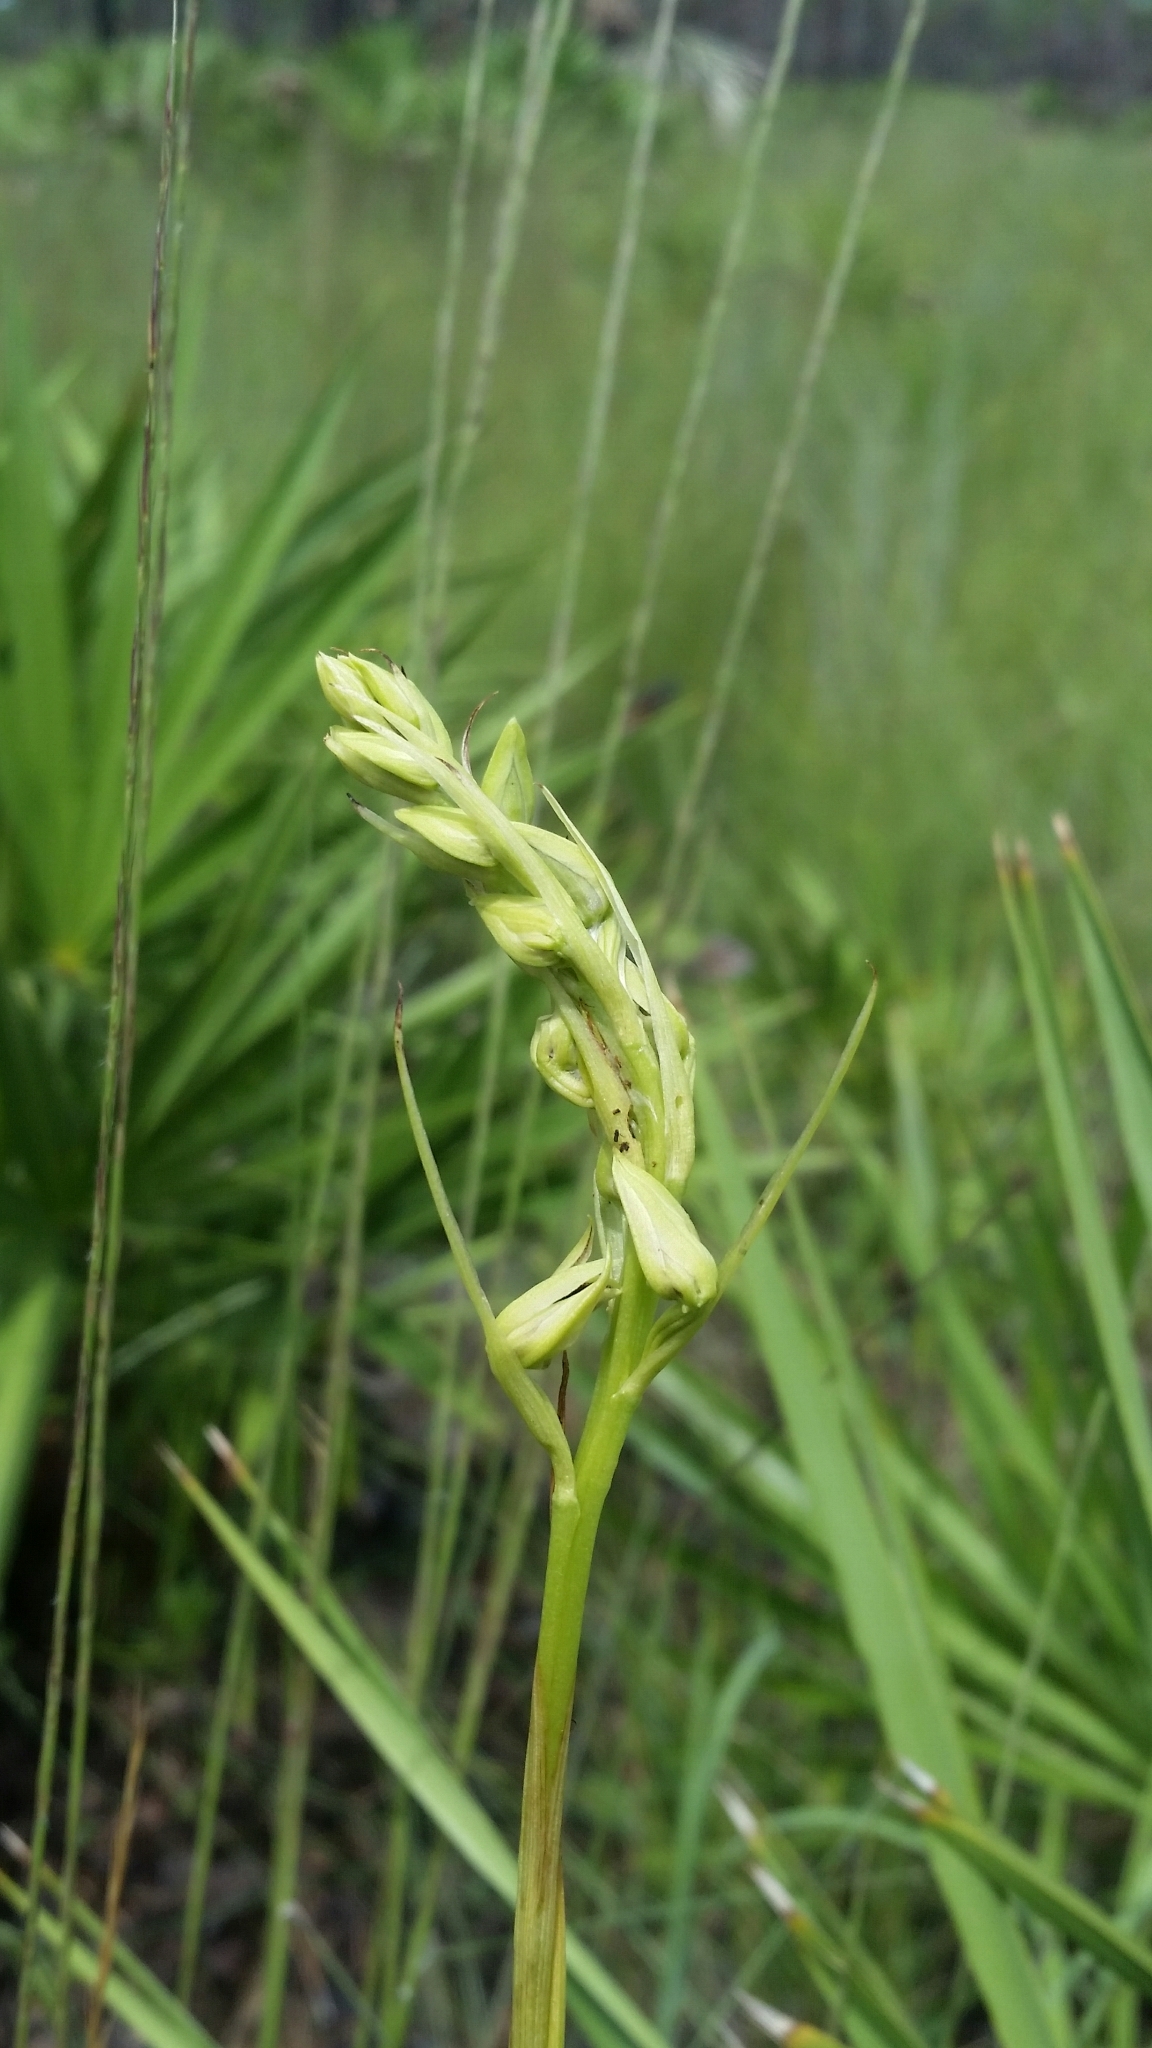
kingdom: Plantae
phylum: Tracheophyta
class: Liliopsida
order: Asparagales
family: Orchidaceae
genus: Eulophia
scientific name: Eulophia ecristata
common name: Giant orchid
